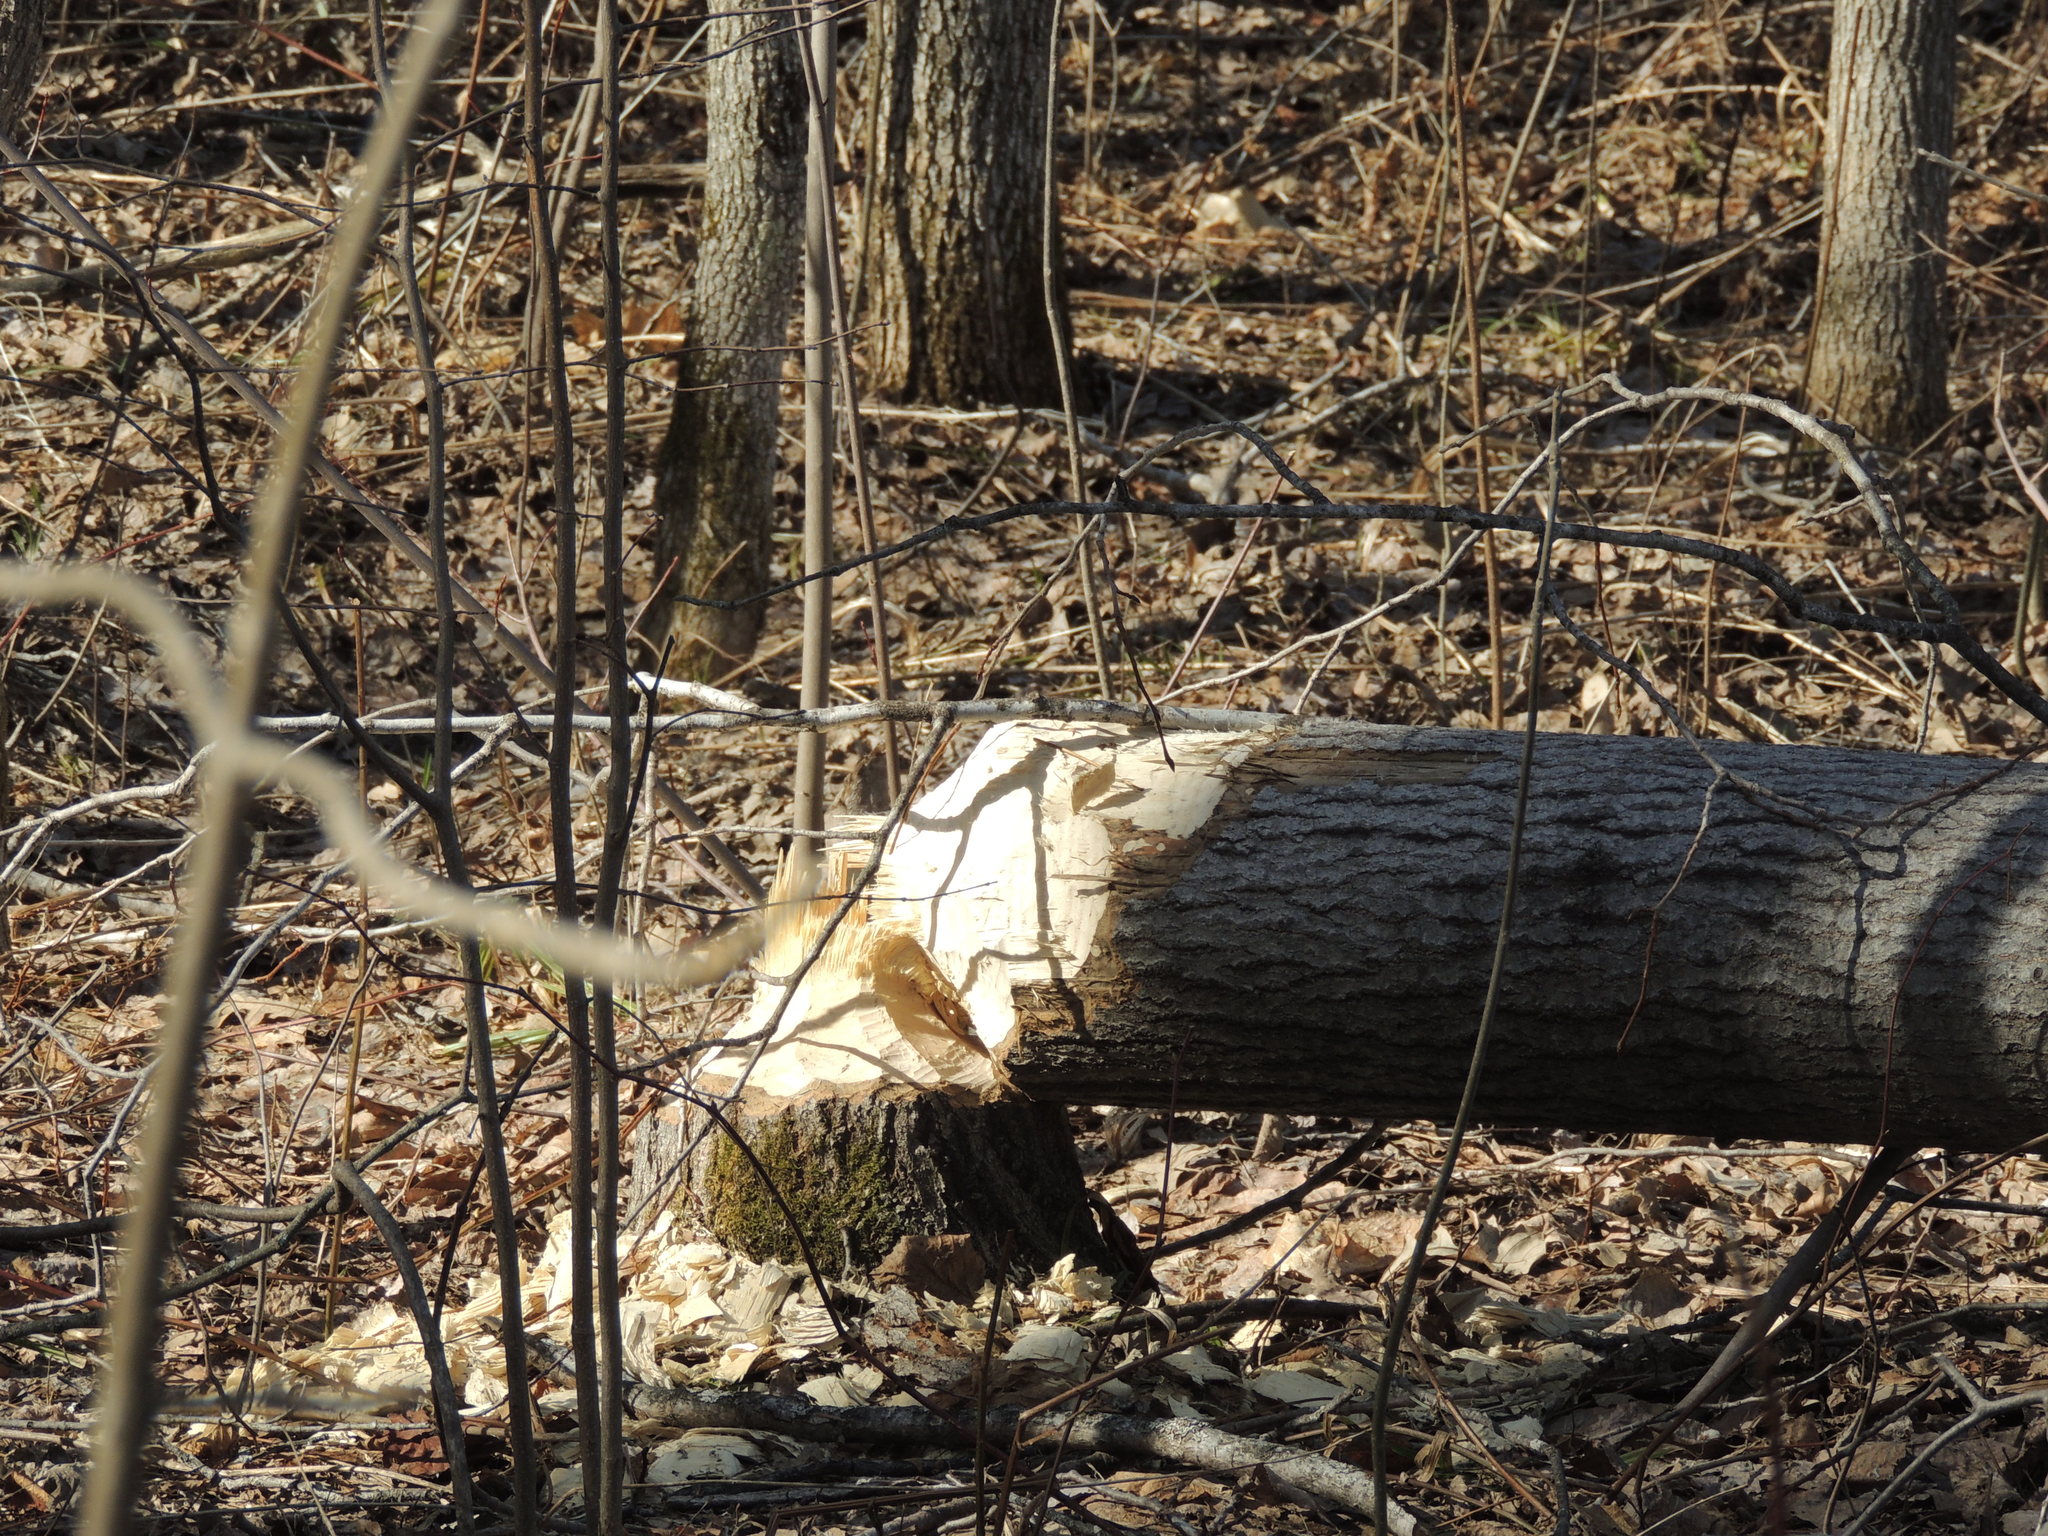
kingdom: Animalia
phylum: Chordata
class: Mammalia
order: Rodentia
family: Castoridae
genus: Castor
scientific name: Castor canadensis
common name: American beaver
